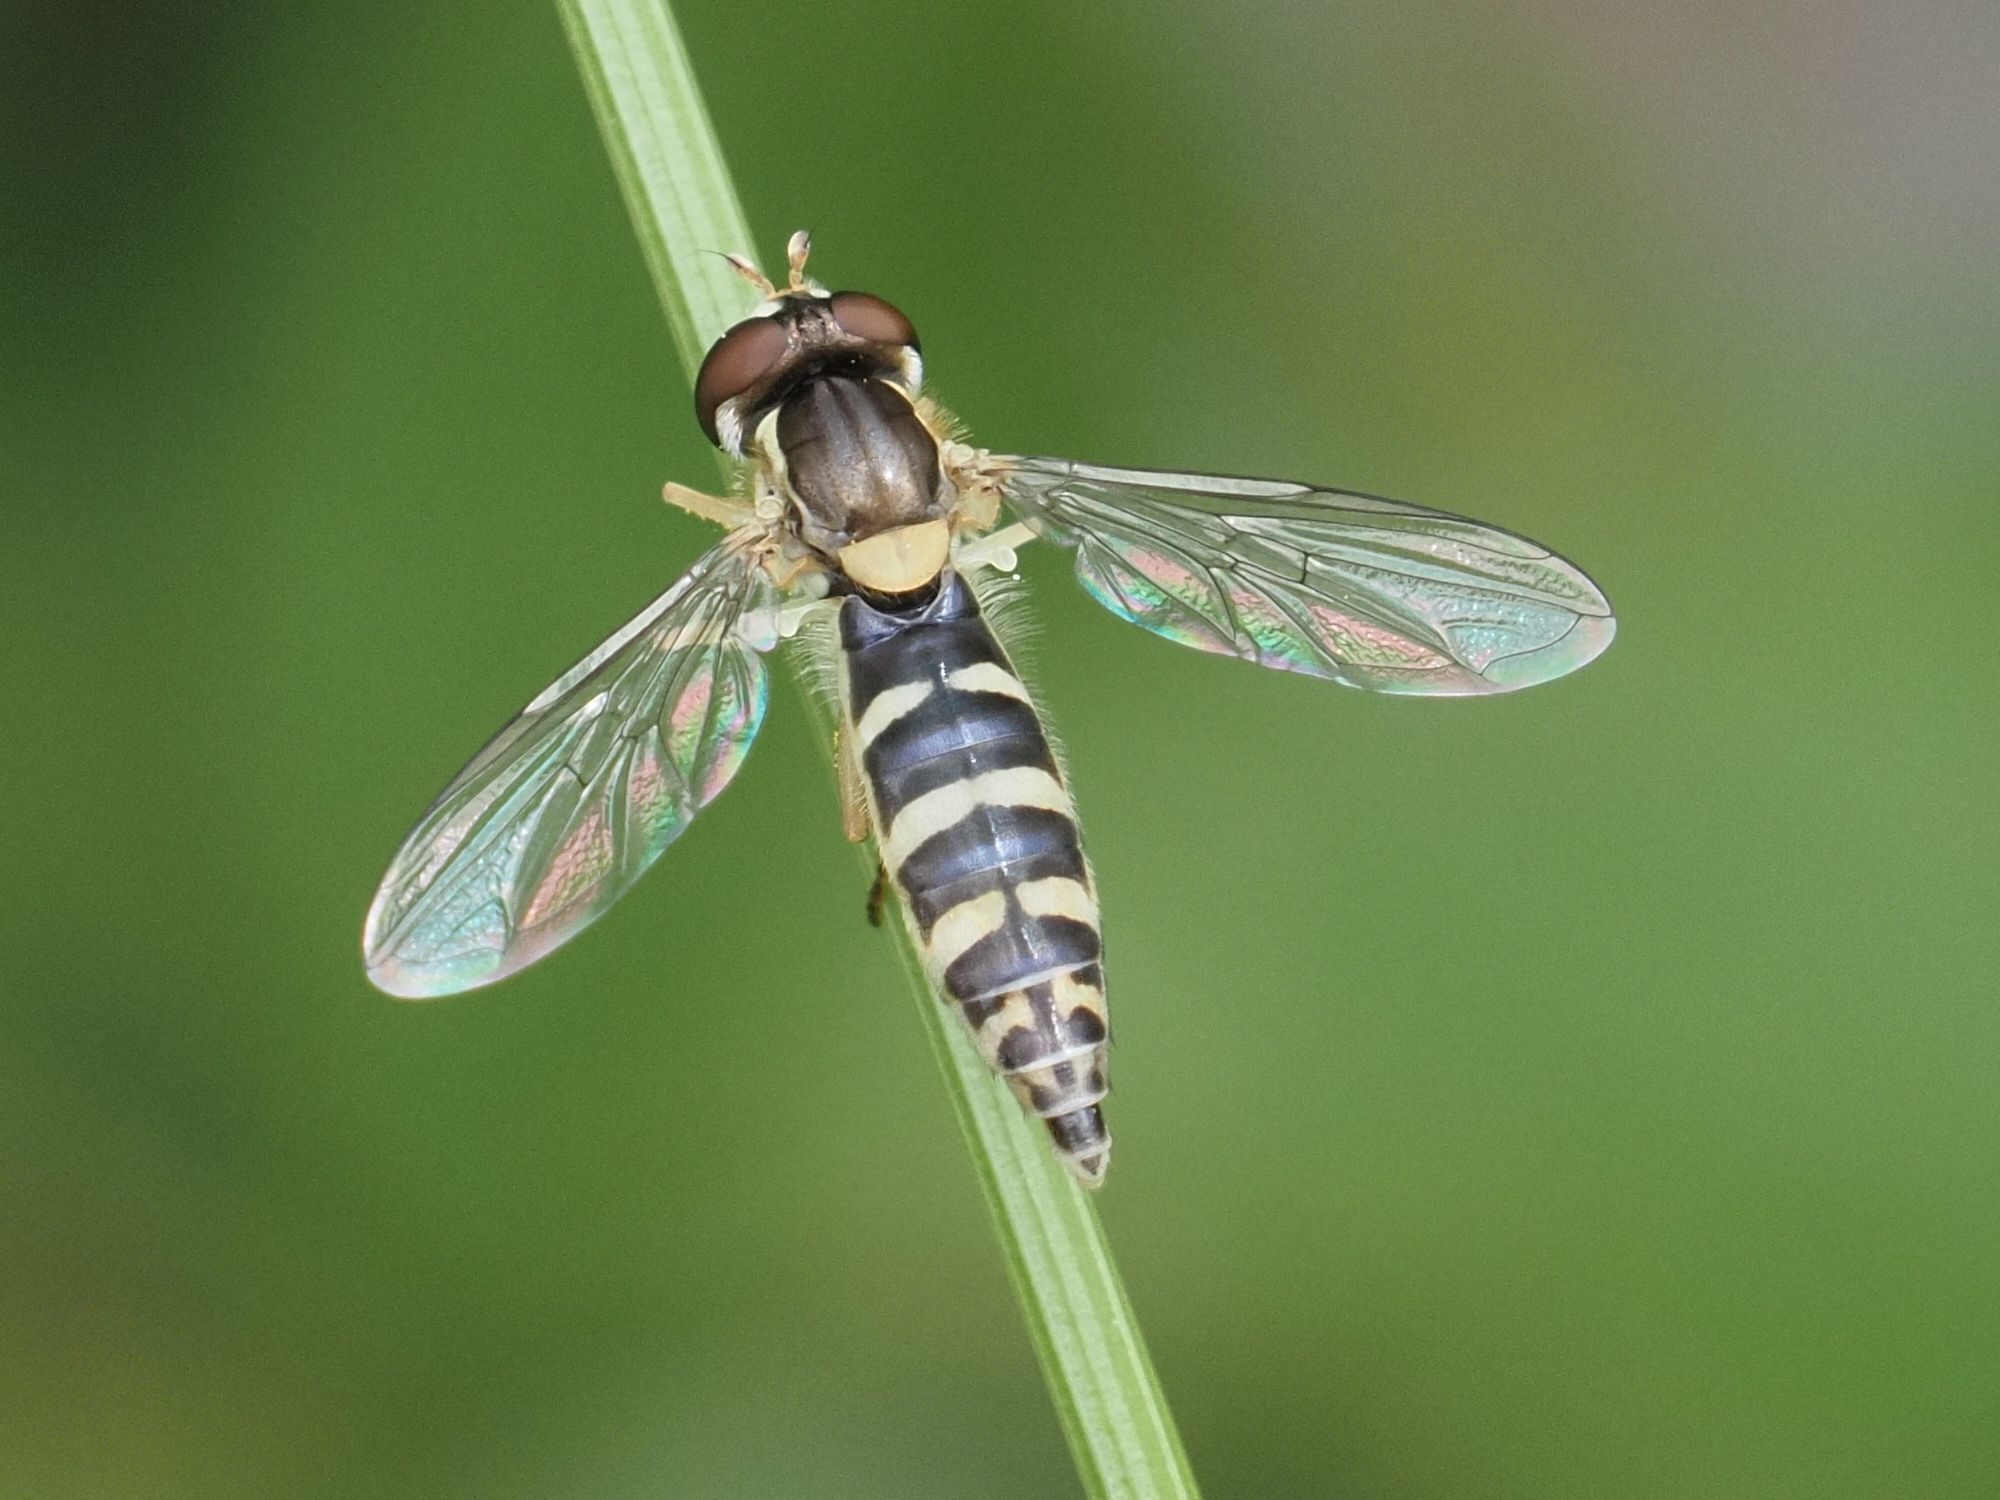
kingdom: Animalia
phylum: Arthropoda
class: Insecta
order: Diptera
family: Syrphidae
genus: Sphaerophoria
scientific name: Sphaerophoria
